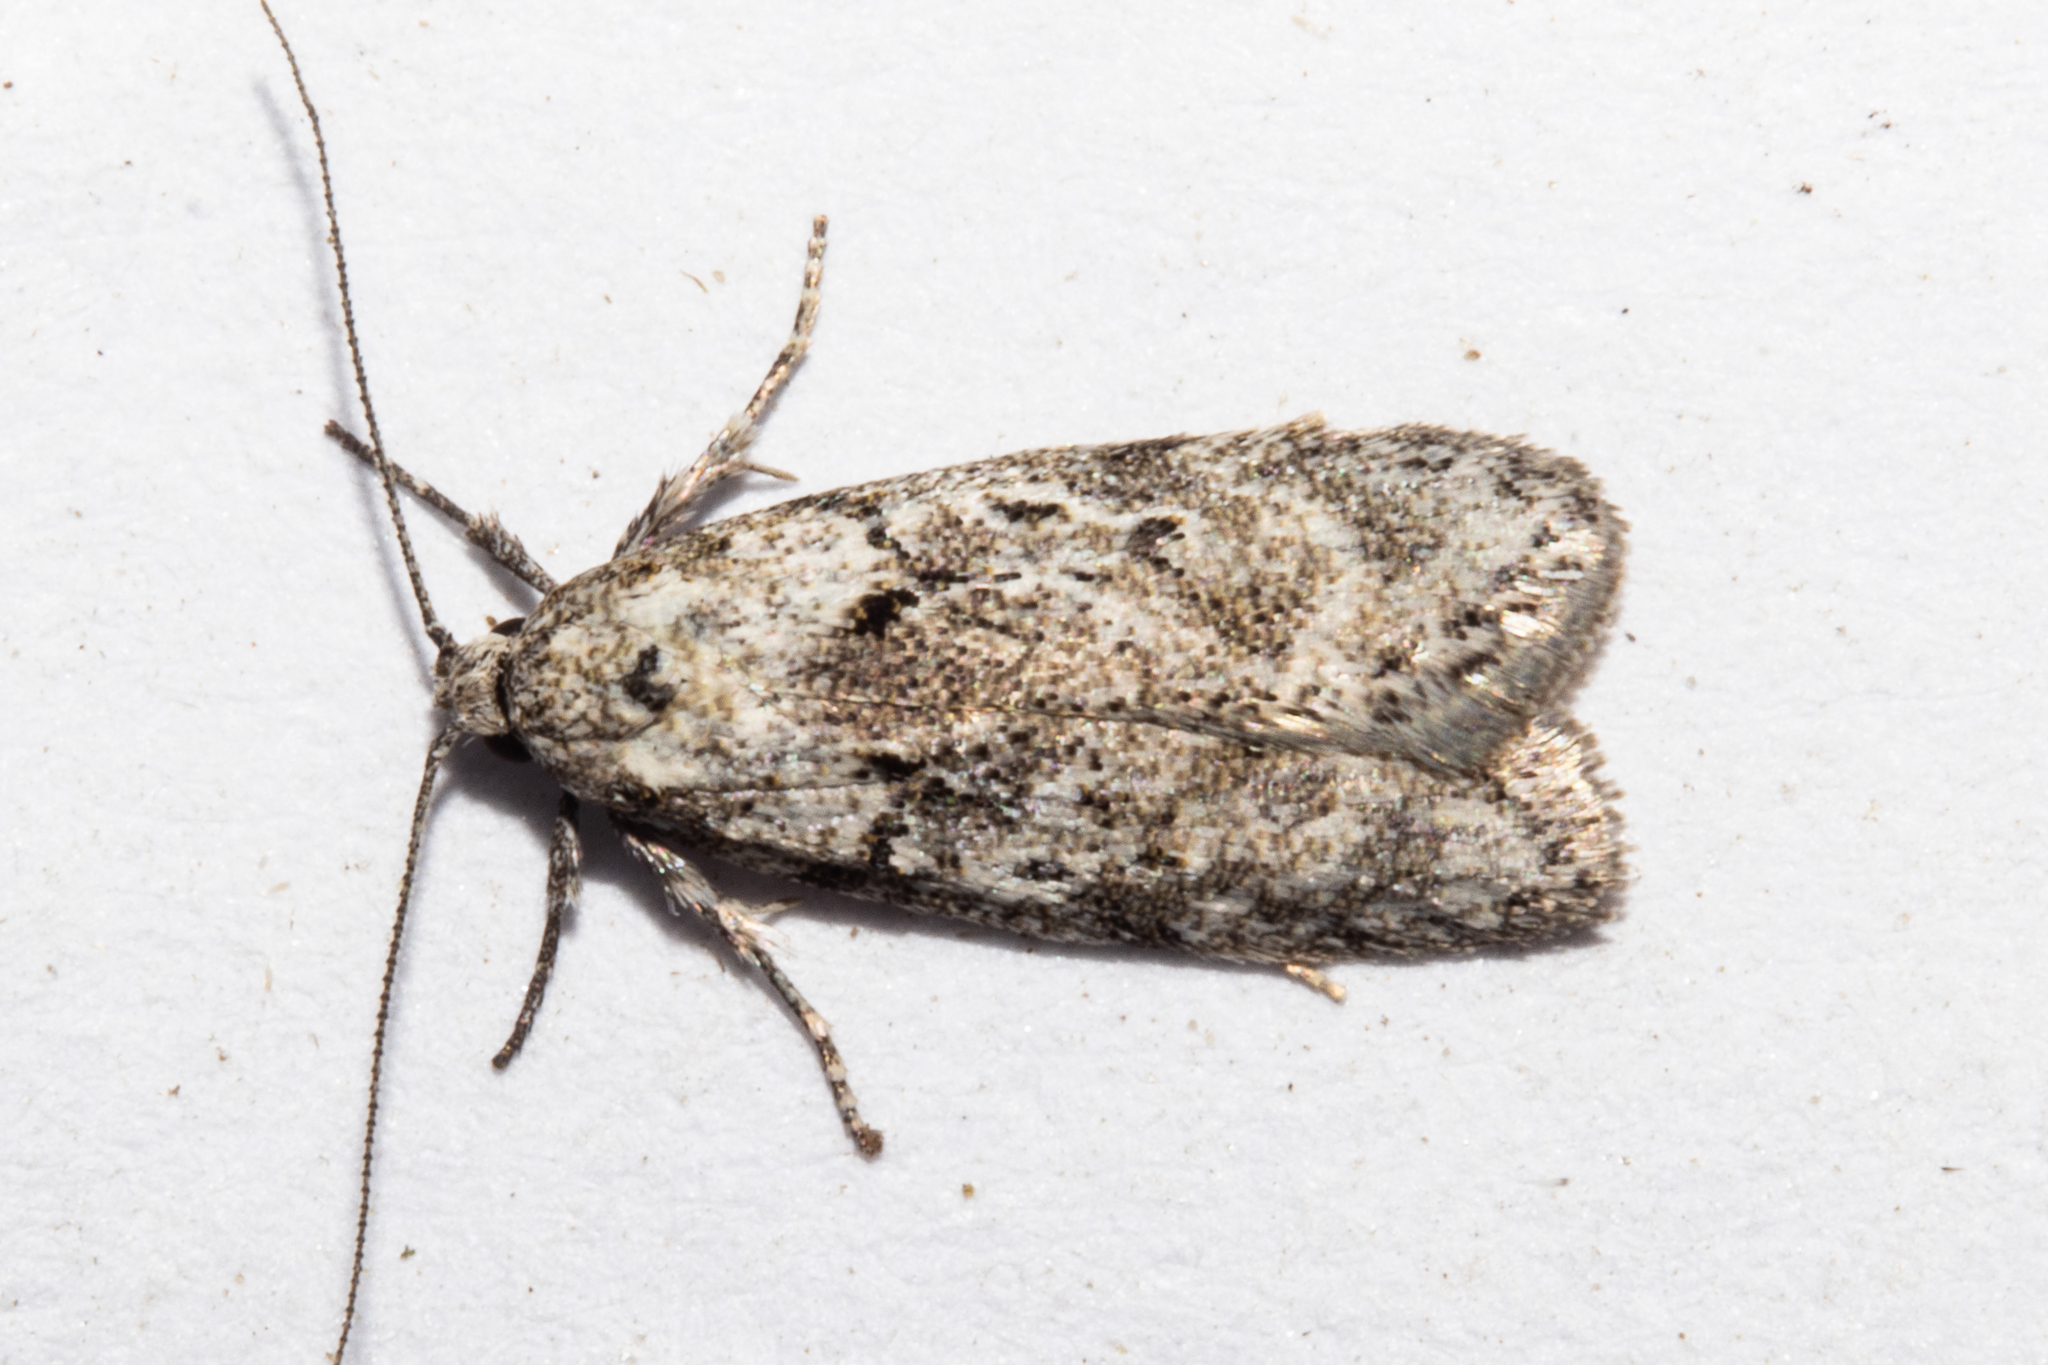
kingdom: Animalia
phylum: Arthropoda
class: Insecta
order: Lepidoptera
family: Oecophoridae
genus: Izatha
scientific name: Izatha convulsella
